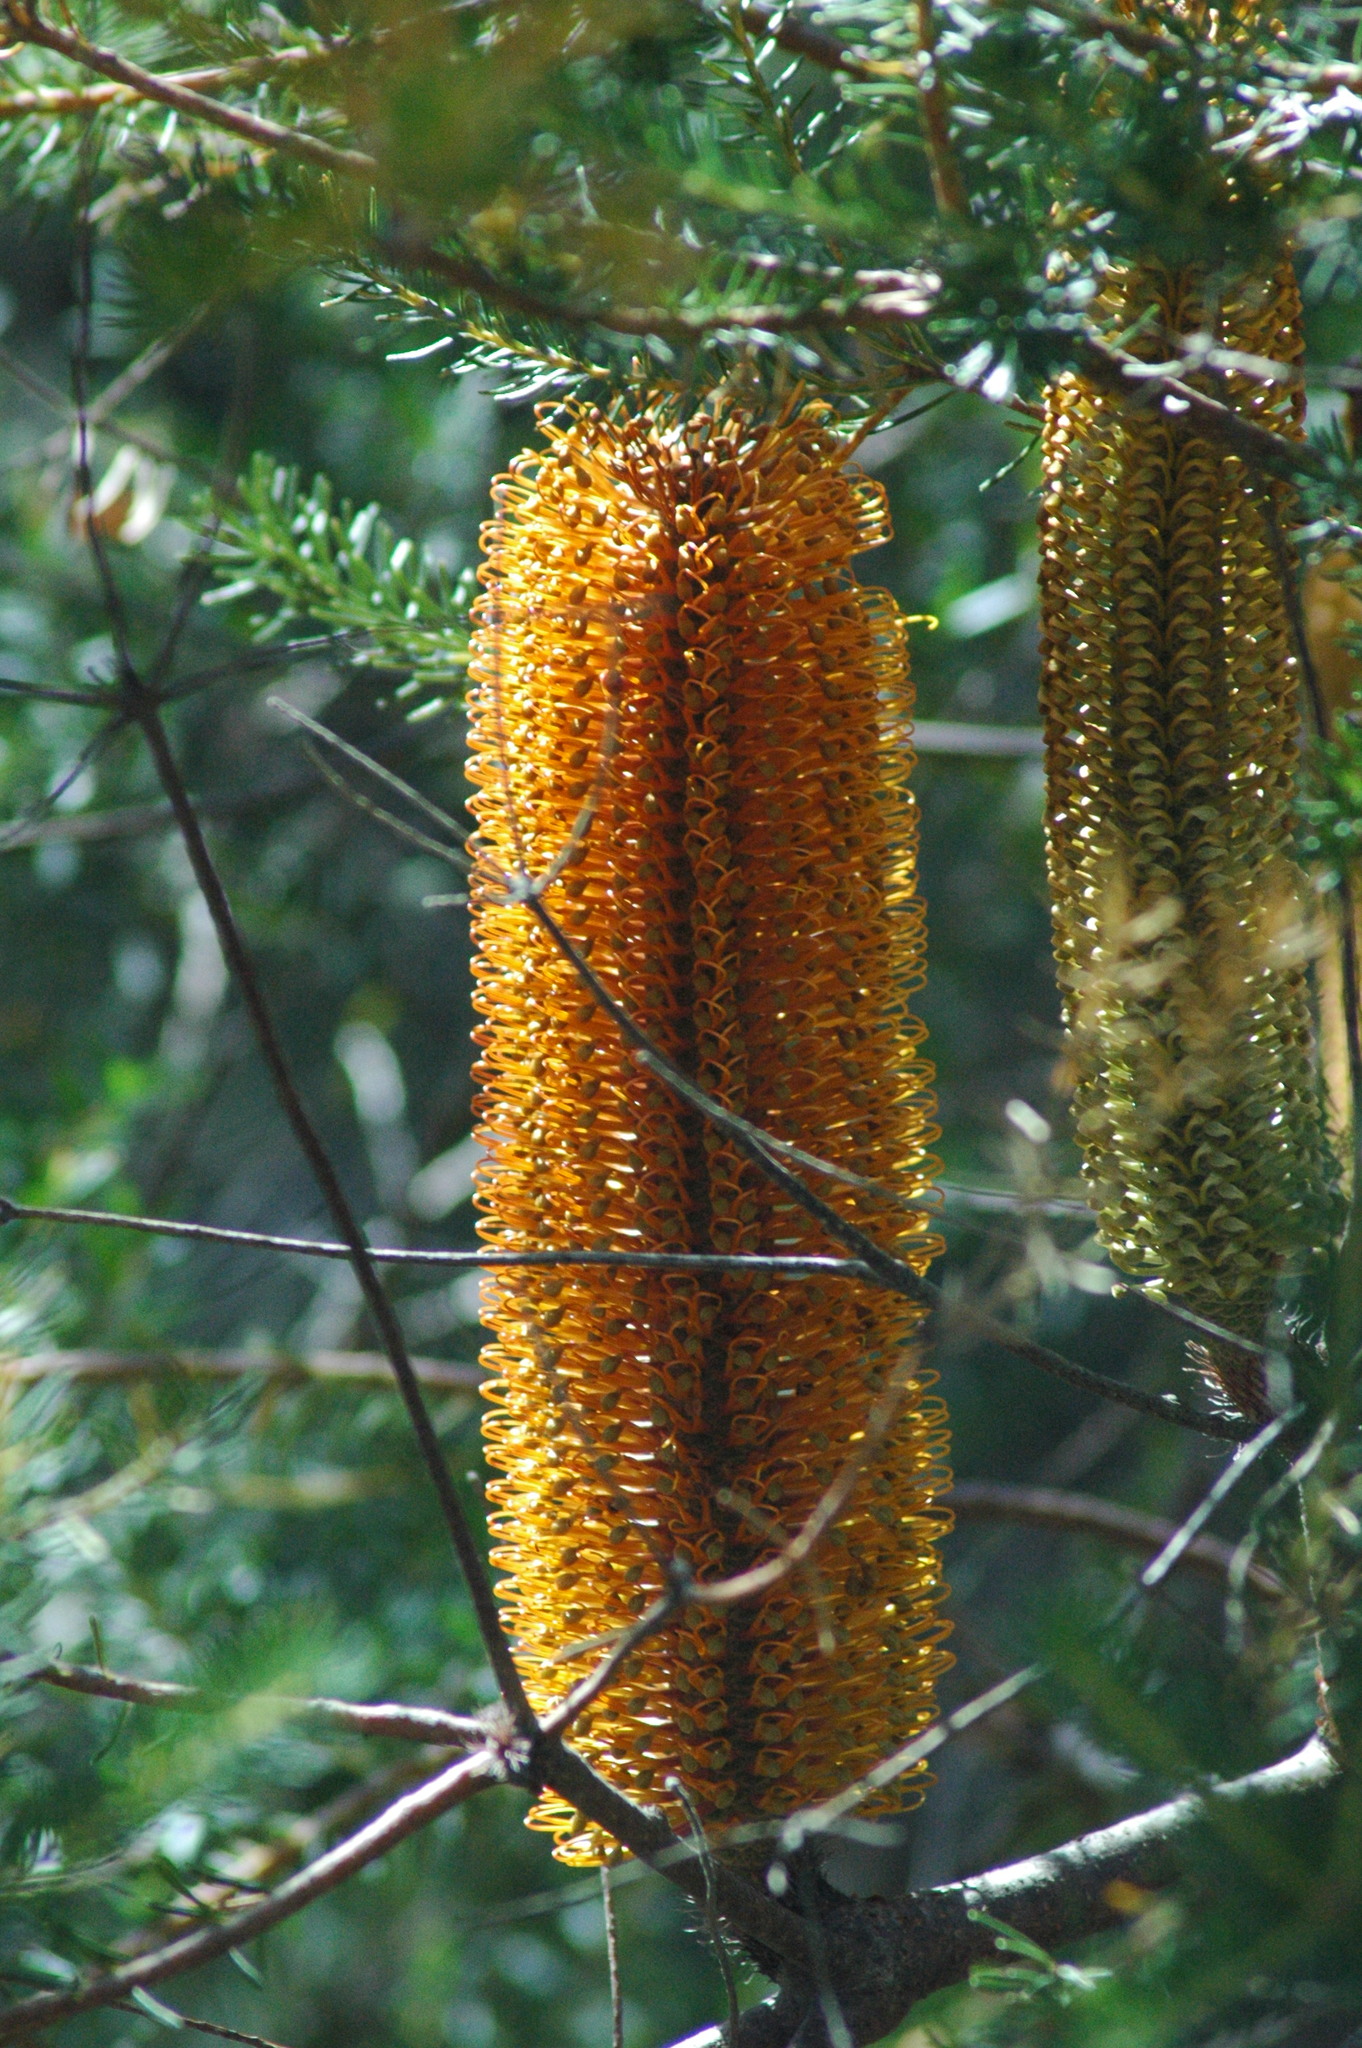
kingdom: Plantae
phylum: Tracheophyta
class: Magnoliopsida
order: Proteales
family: Proteaceae
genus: Banksia
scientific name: Banksia ericifolia
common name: Heath-leaf banksia
